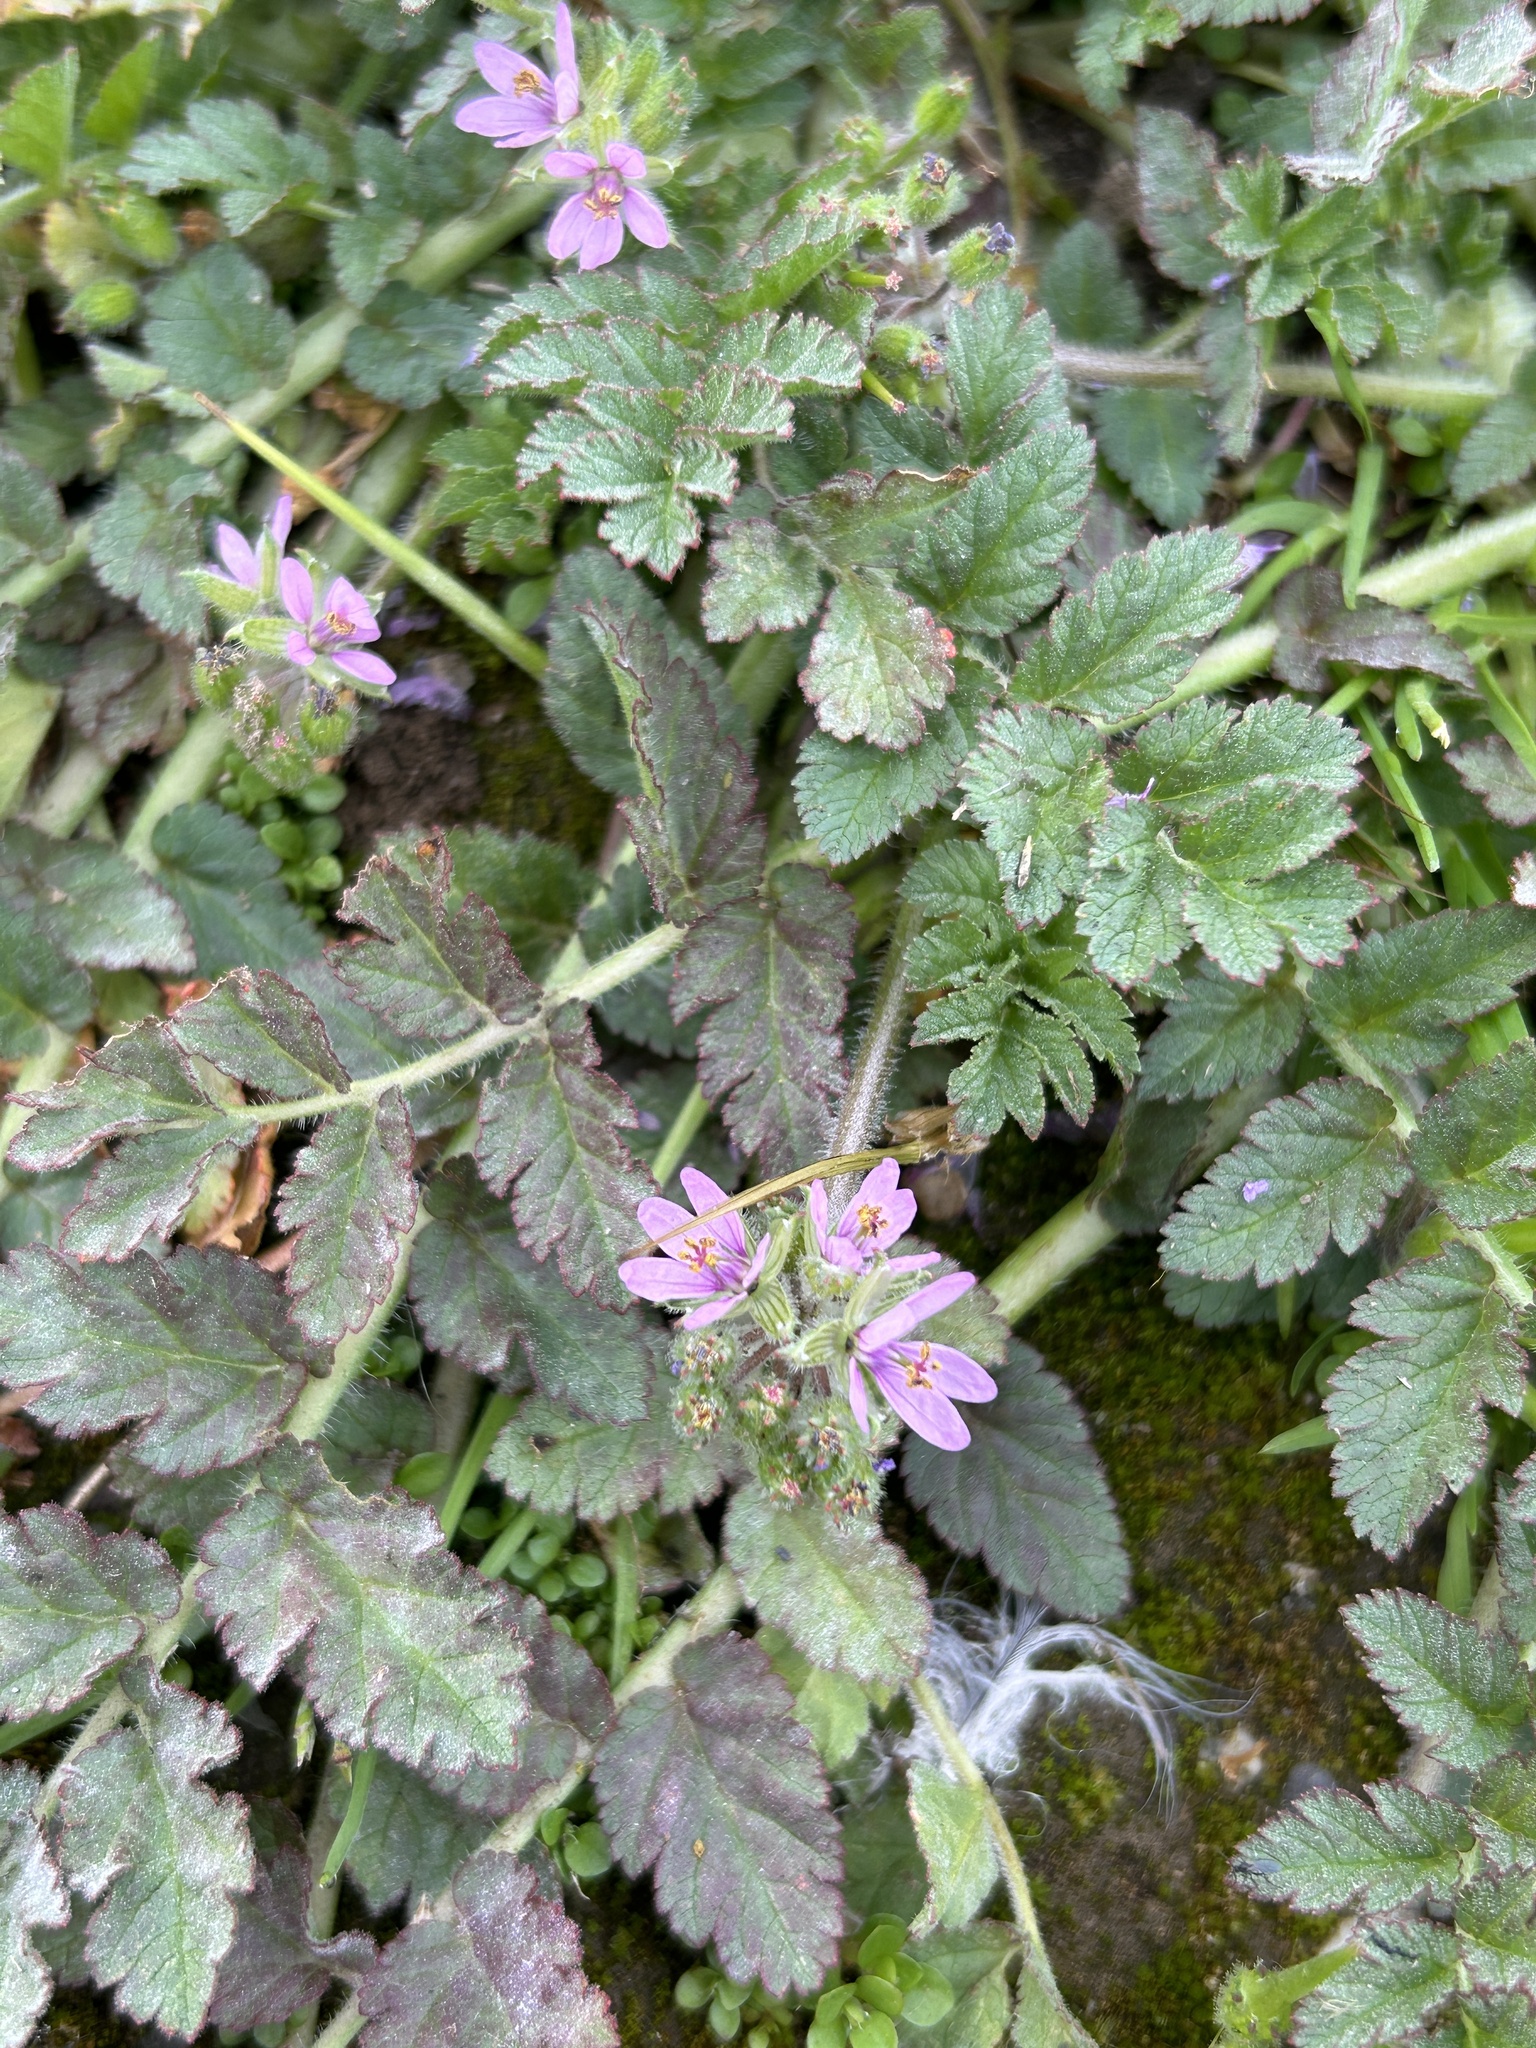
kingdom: Plantae
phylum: Tracheophyta
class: Magnoliopsida
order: Geraniales
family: Geraniaceae
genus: Erodium
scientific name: Erodium moschatum
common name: Musk stork's-bill
